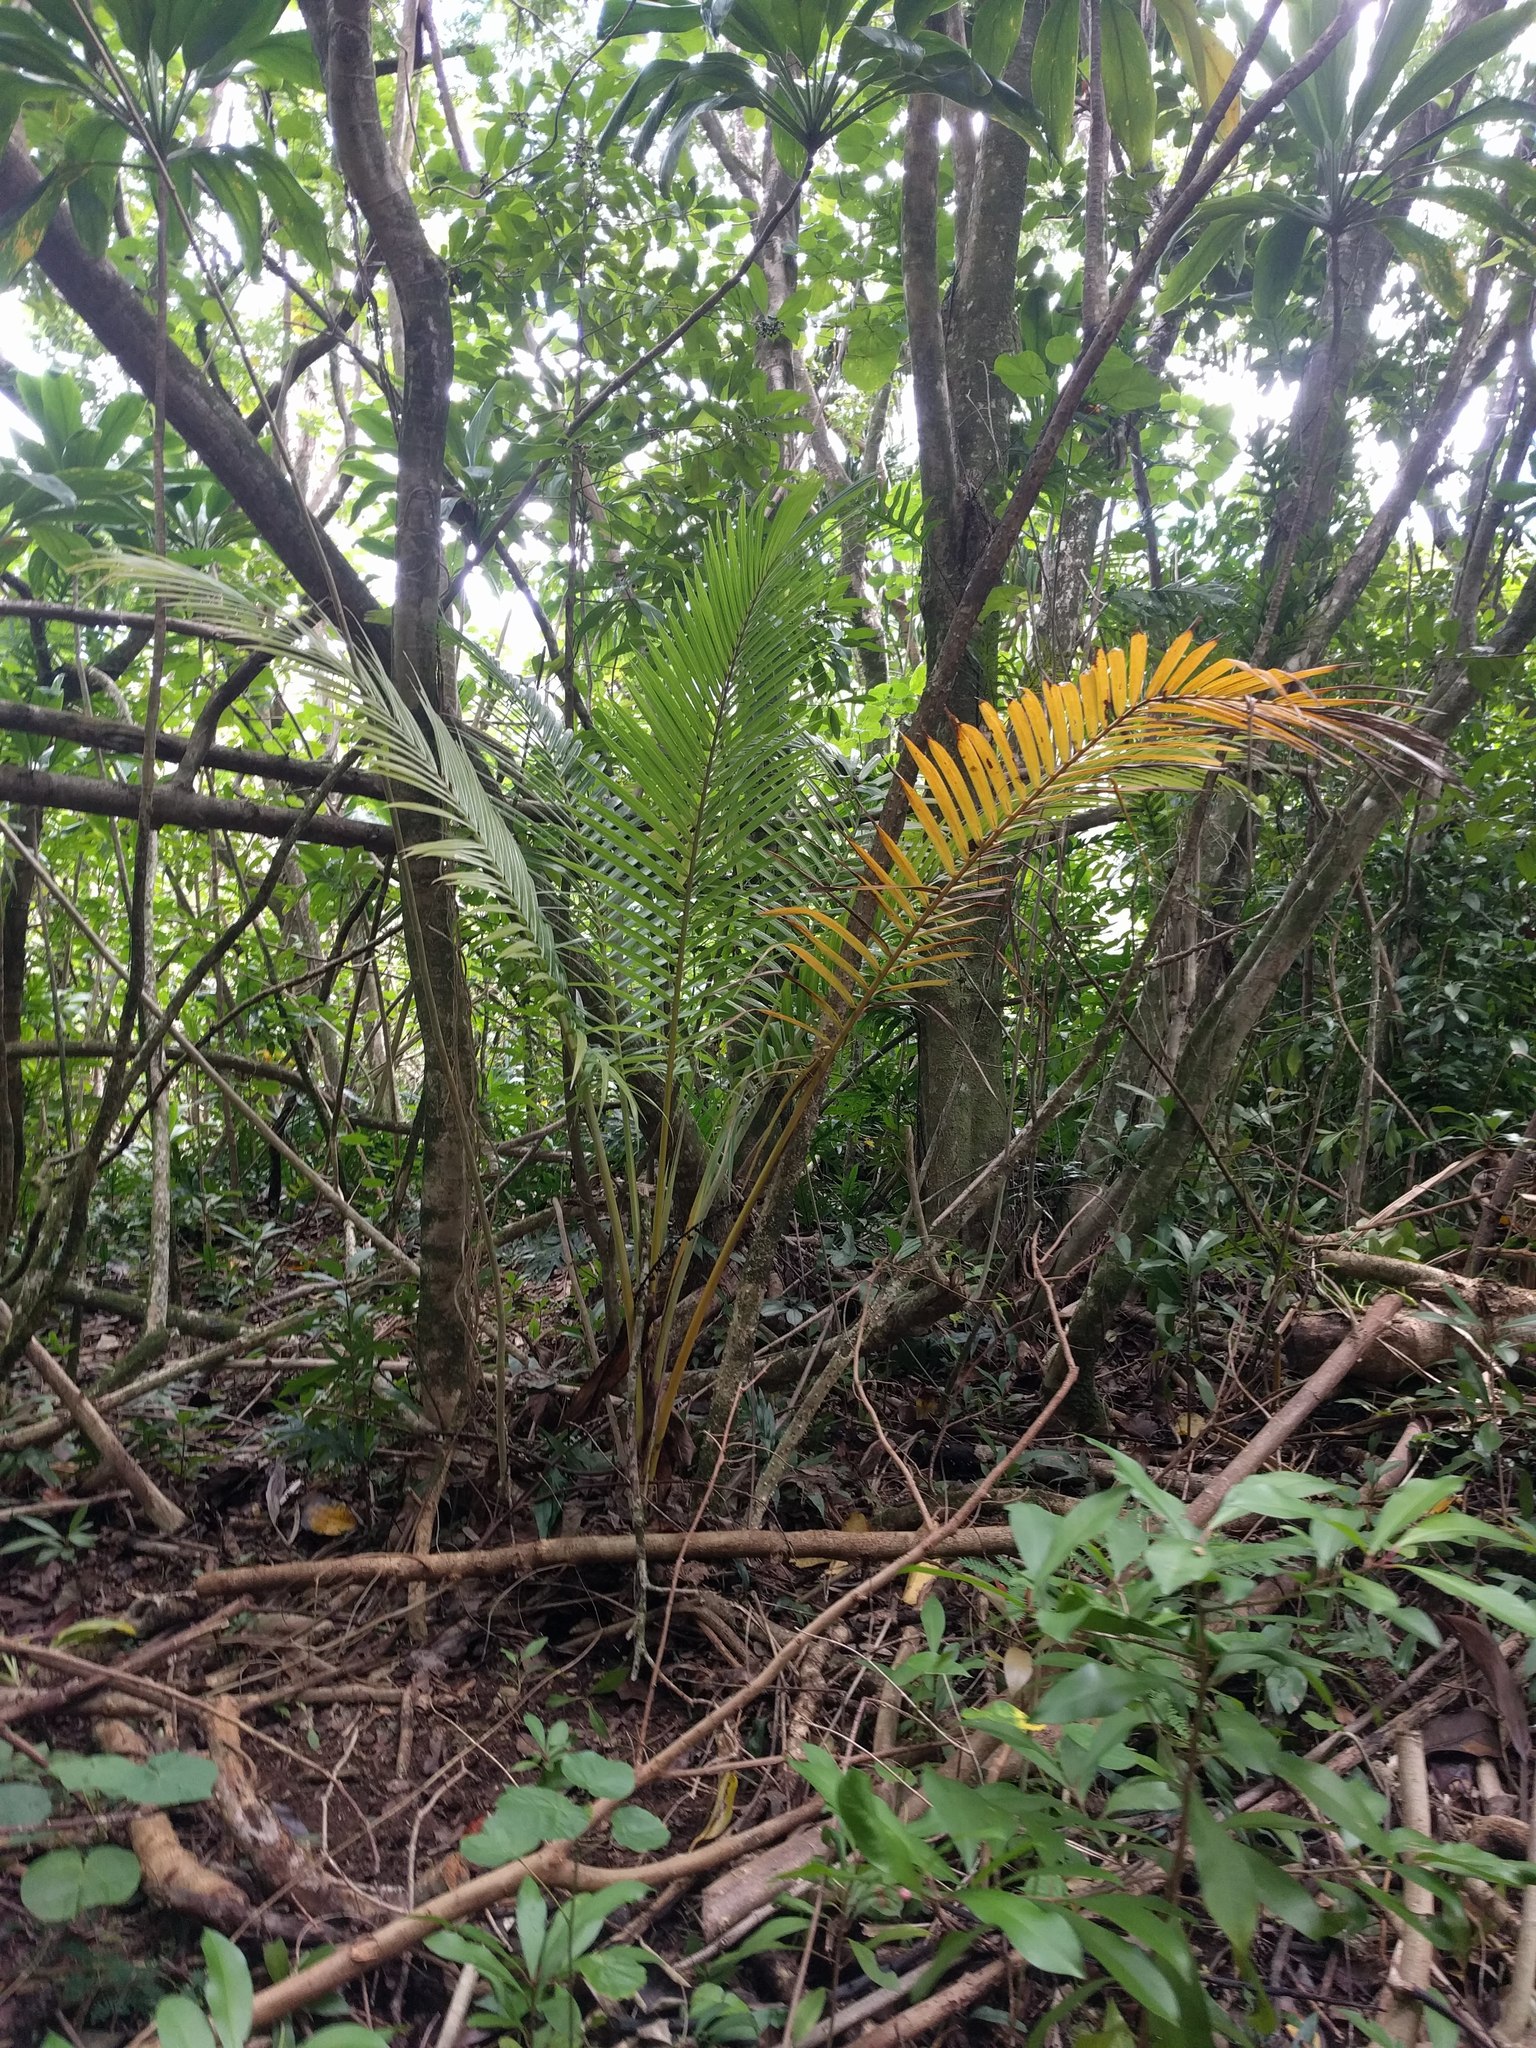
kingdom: Plantae
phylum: Tracheophyta
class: Liliopsida
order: Arecales
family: Arecaceae
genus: Cocos
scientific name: Cocos nucifera
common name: Coconut palm
